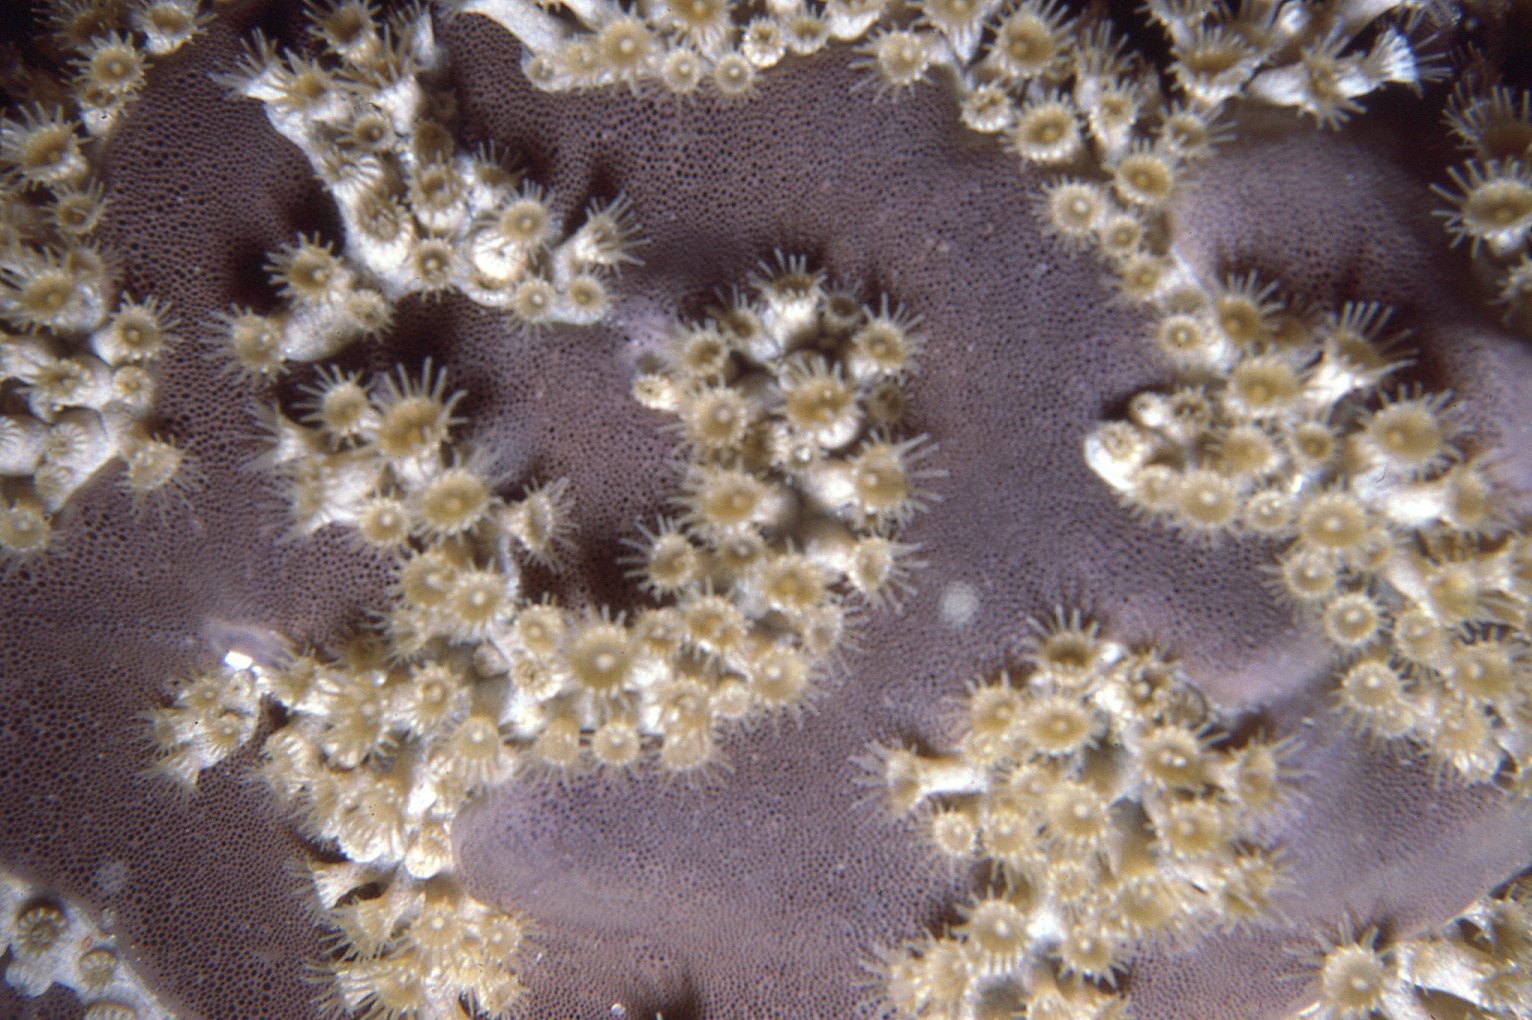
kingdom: Animalia
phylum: Cnidaria
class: Anthozoa
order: Zoantharia
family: Epizoanthidae
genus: Epizoanthus
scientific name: Epizoanthus sabulosus
